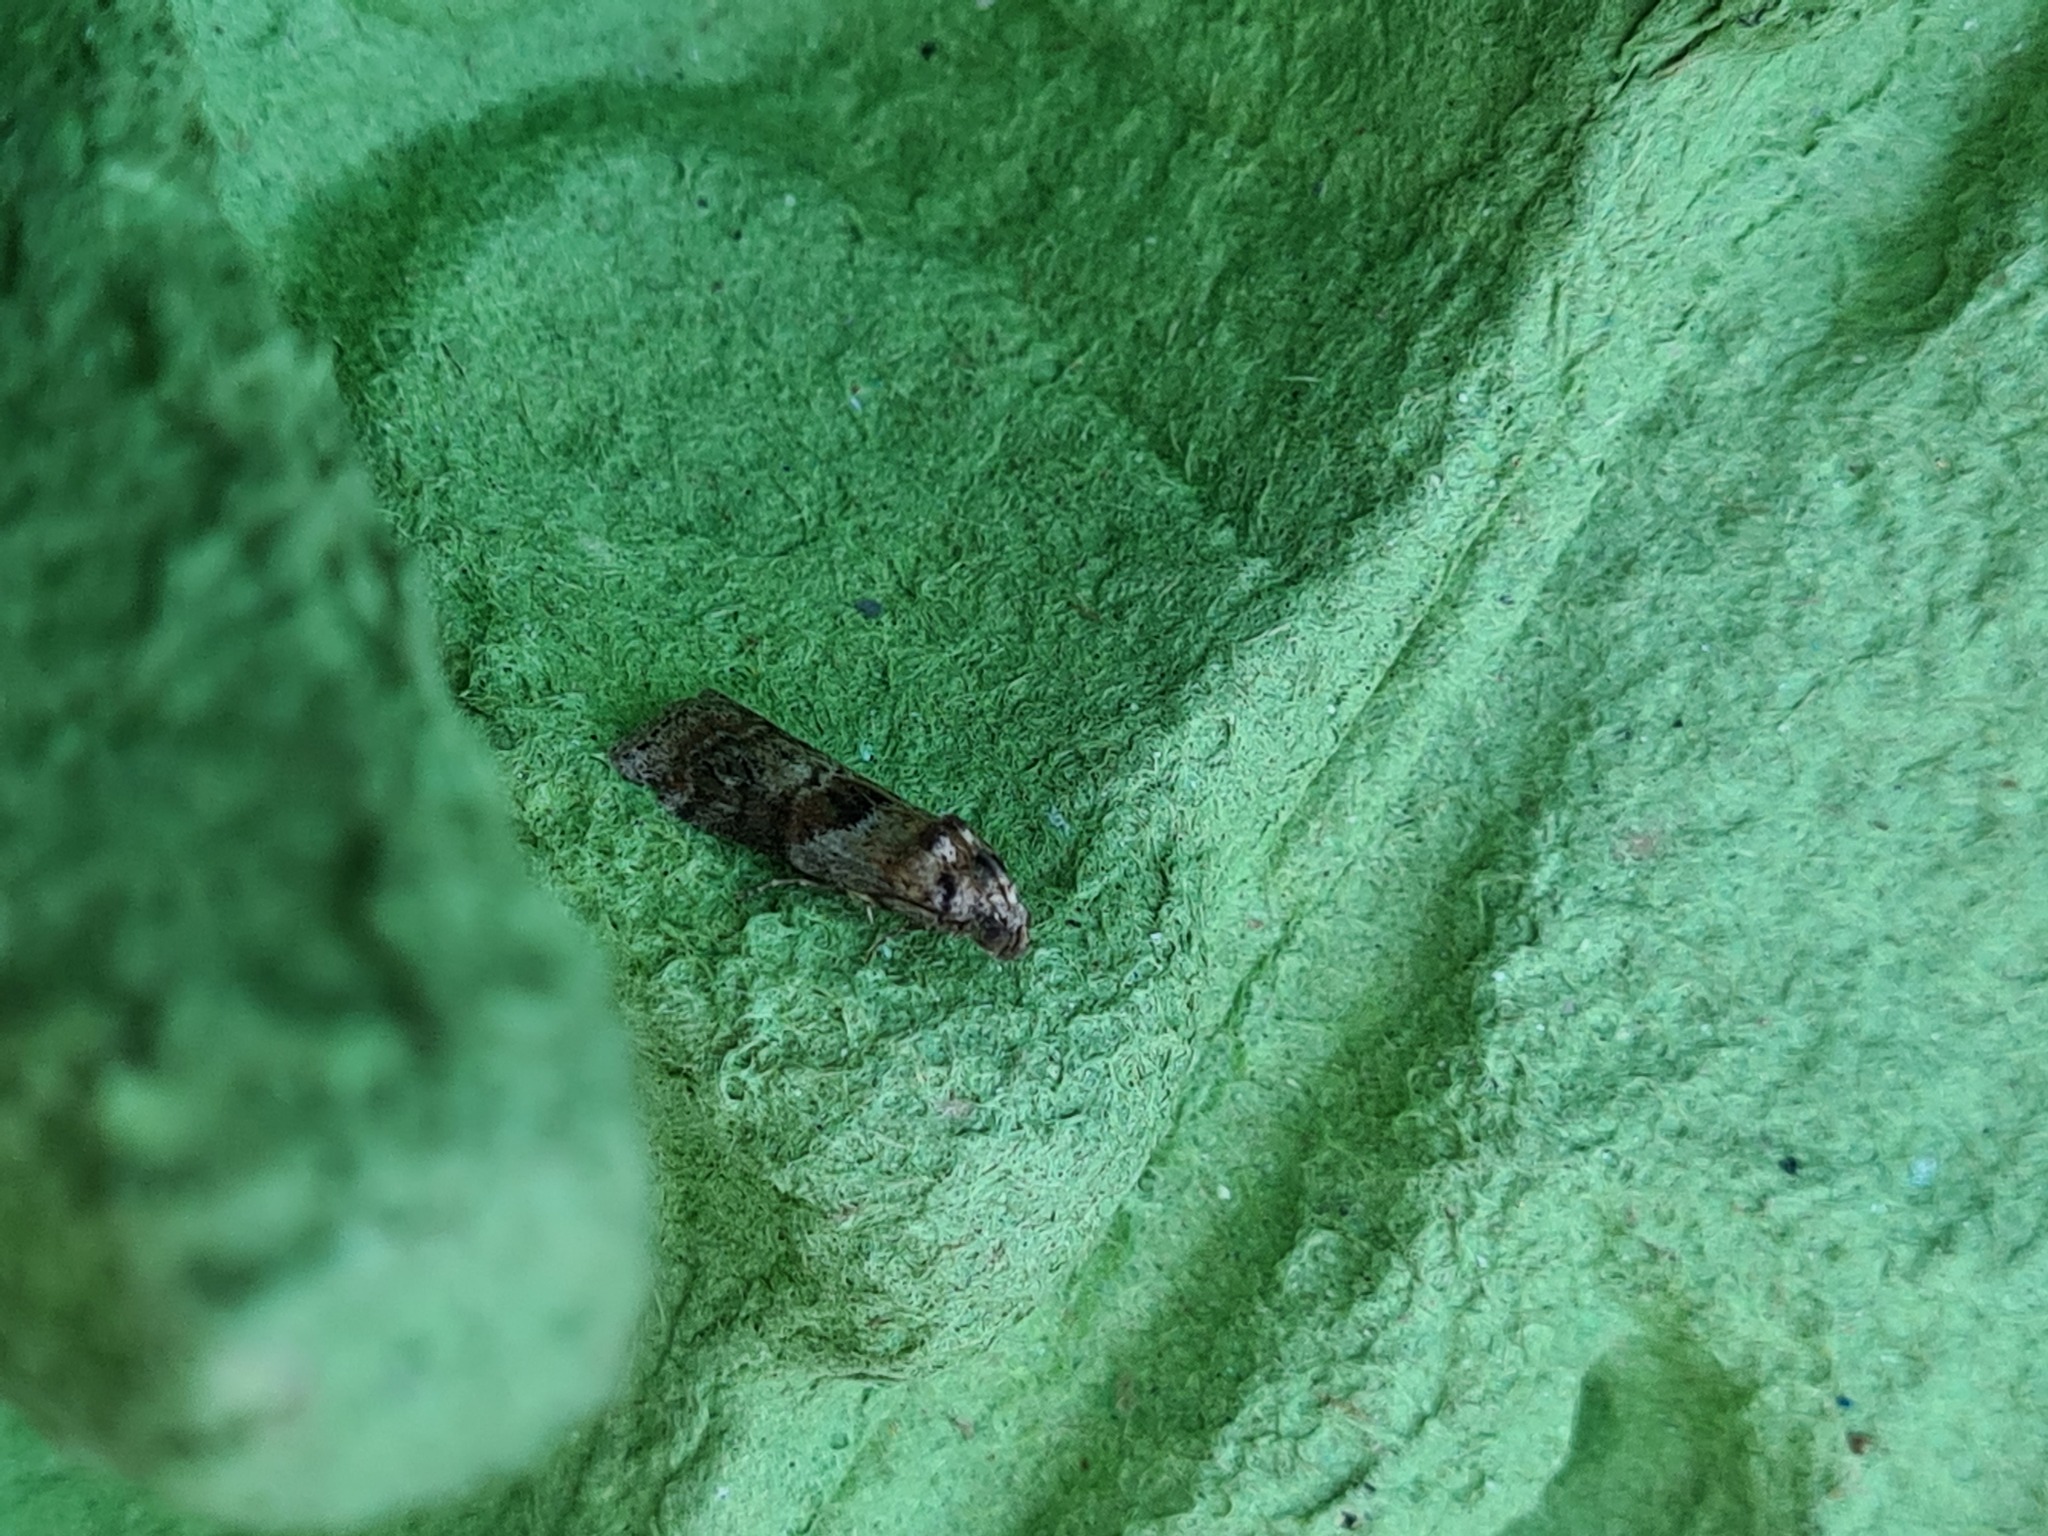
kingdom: Animalia
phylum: Arthropoda
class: Insecta
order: Lepidoptera
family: Pyralidae
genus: Phycita
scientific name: Phycita roborella
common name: Dotted oak knot-horn
